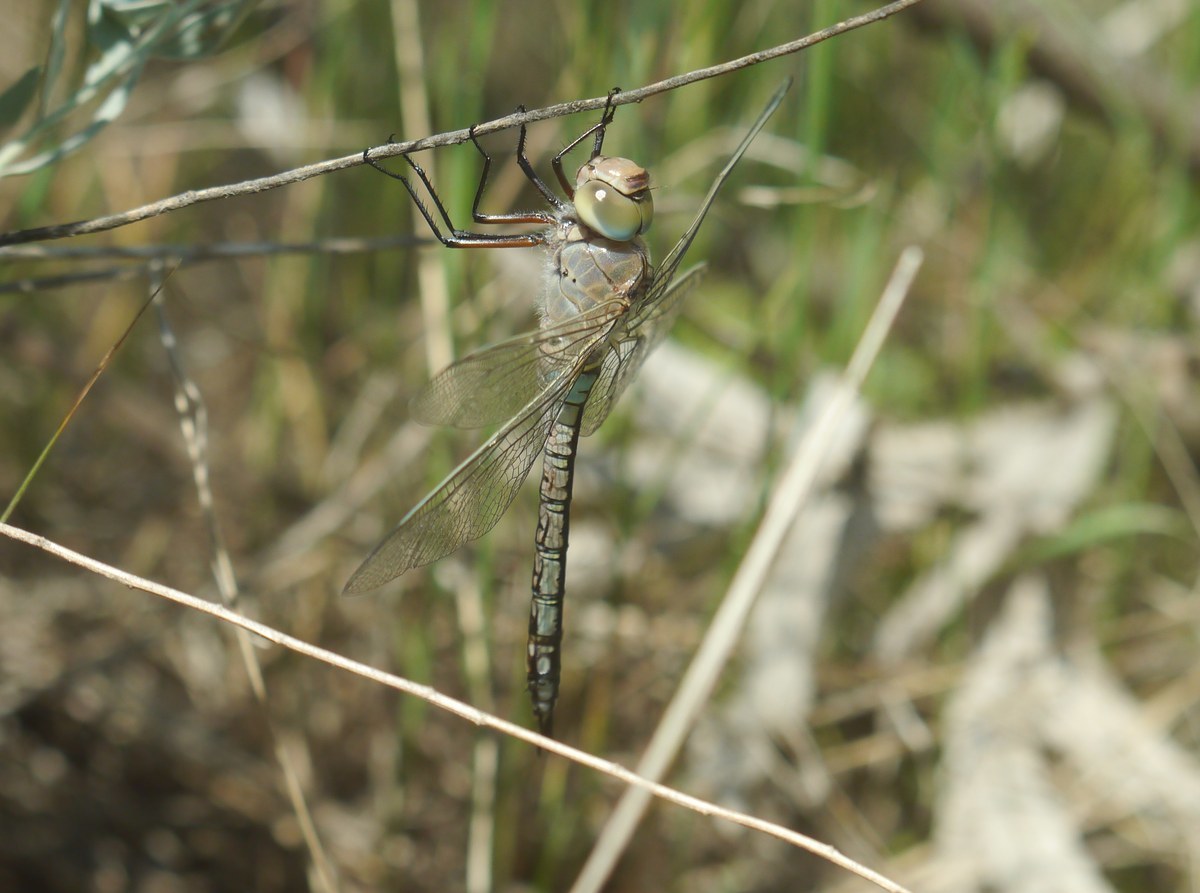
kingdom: Animalia
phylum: Arthropoda
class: Insecta
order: Odonata
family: Aeshnidae
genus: Anax
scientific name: Anax parthenope
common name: Lesser emperor
